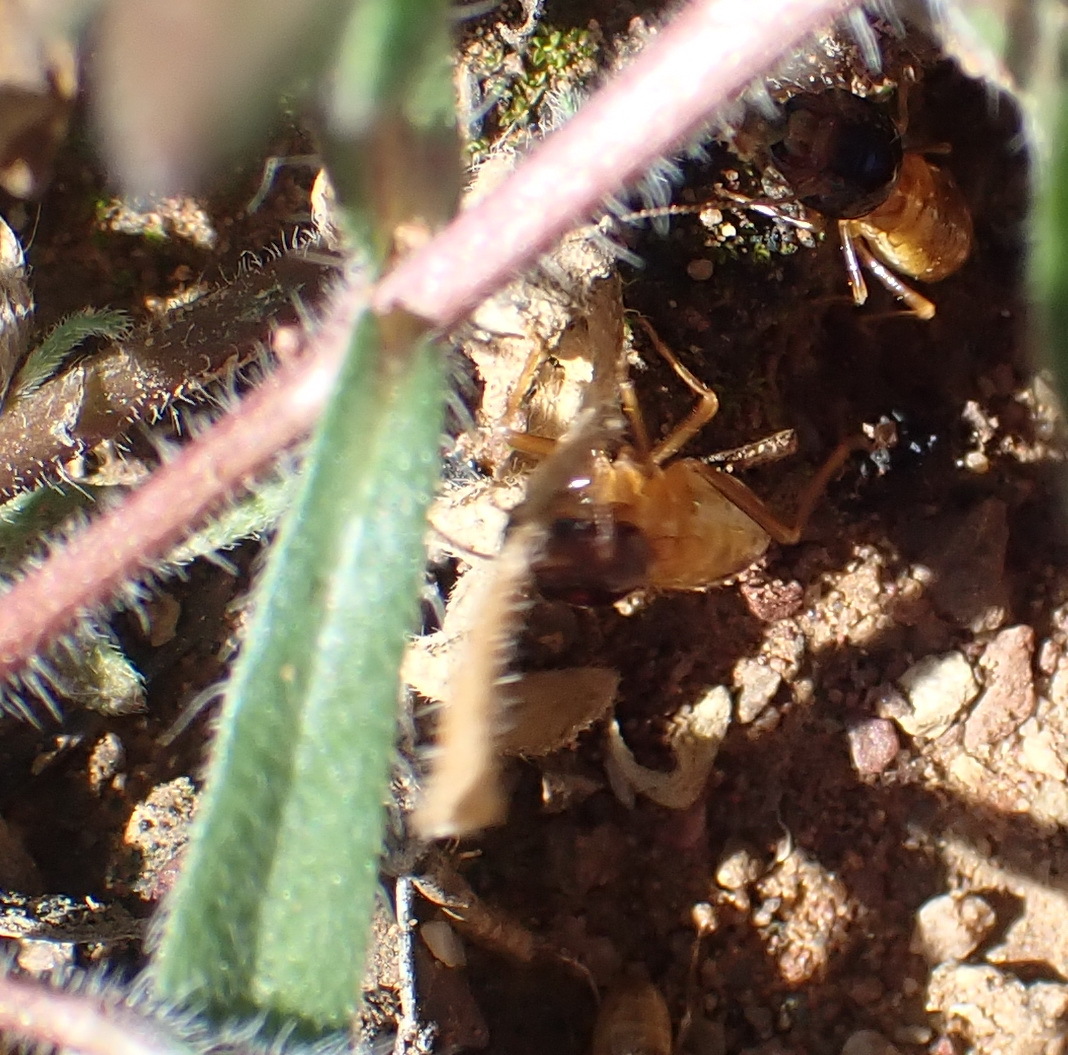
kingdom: Animalia
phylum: Arthropoda
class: Insecta
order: Blattodea
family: Hodotermitidae
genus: Microhodotermes
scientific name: Microhodotermes viator
